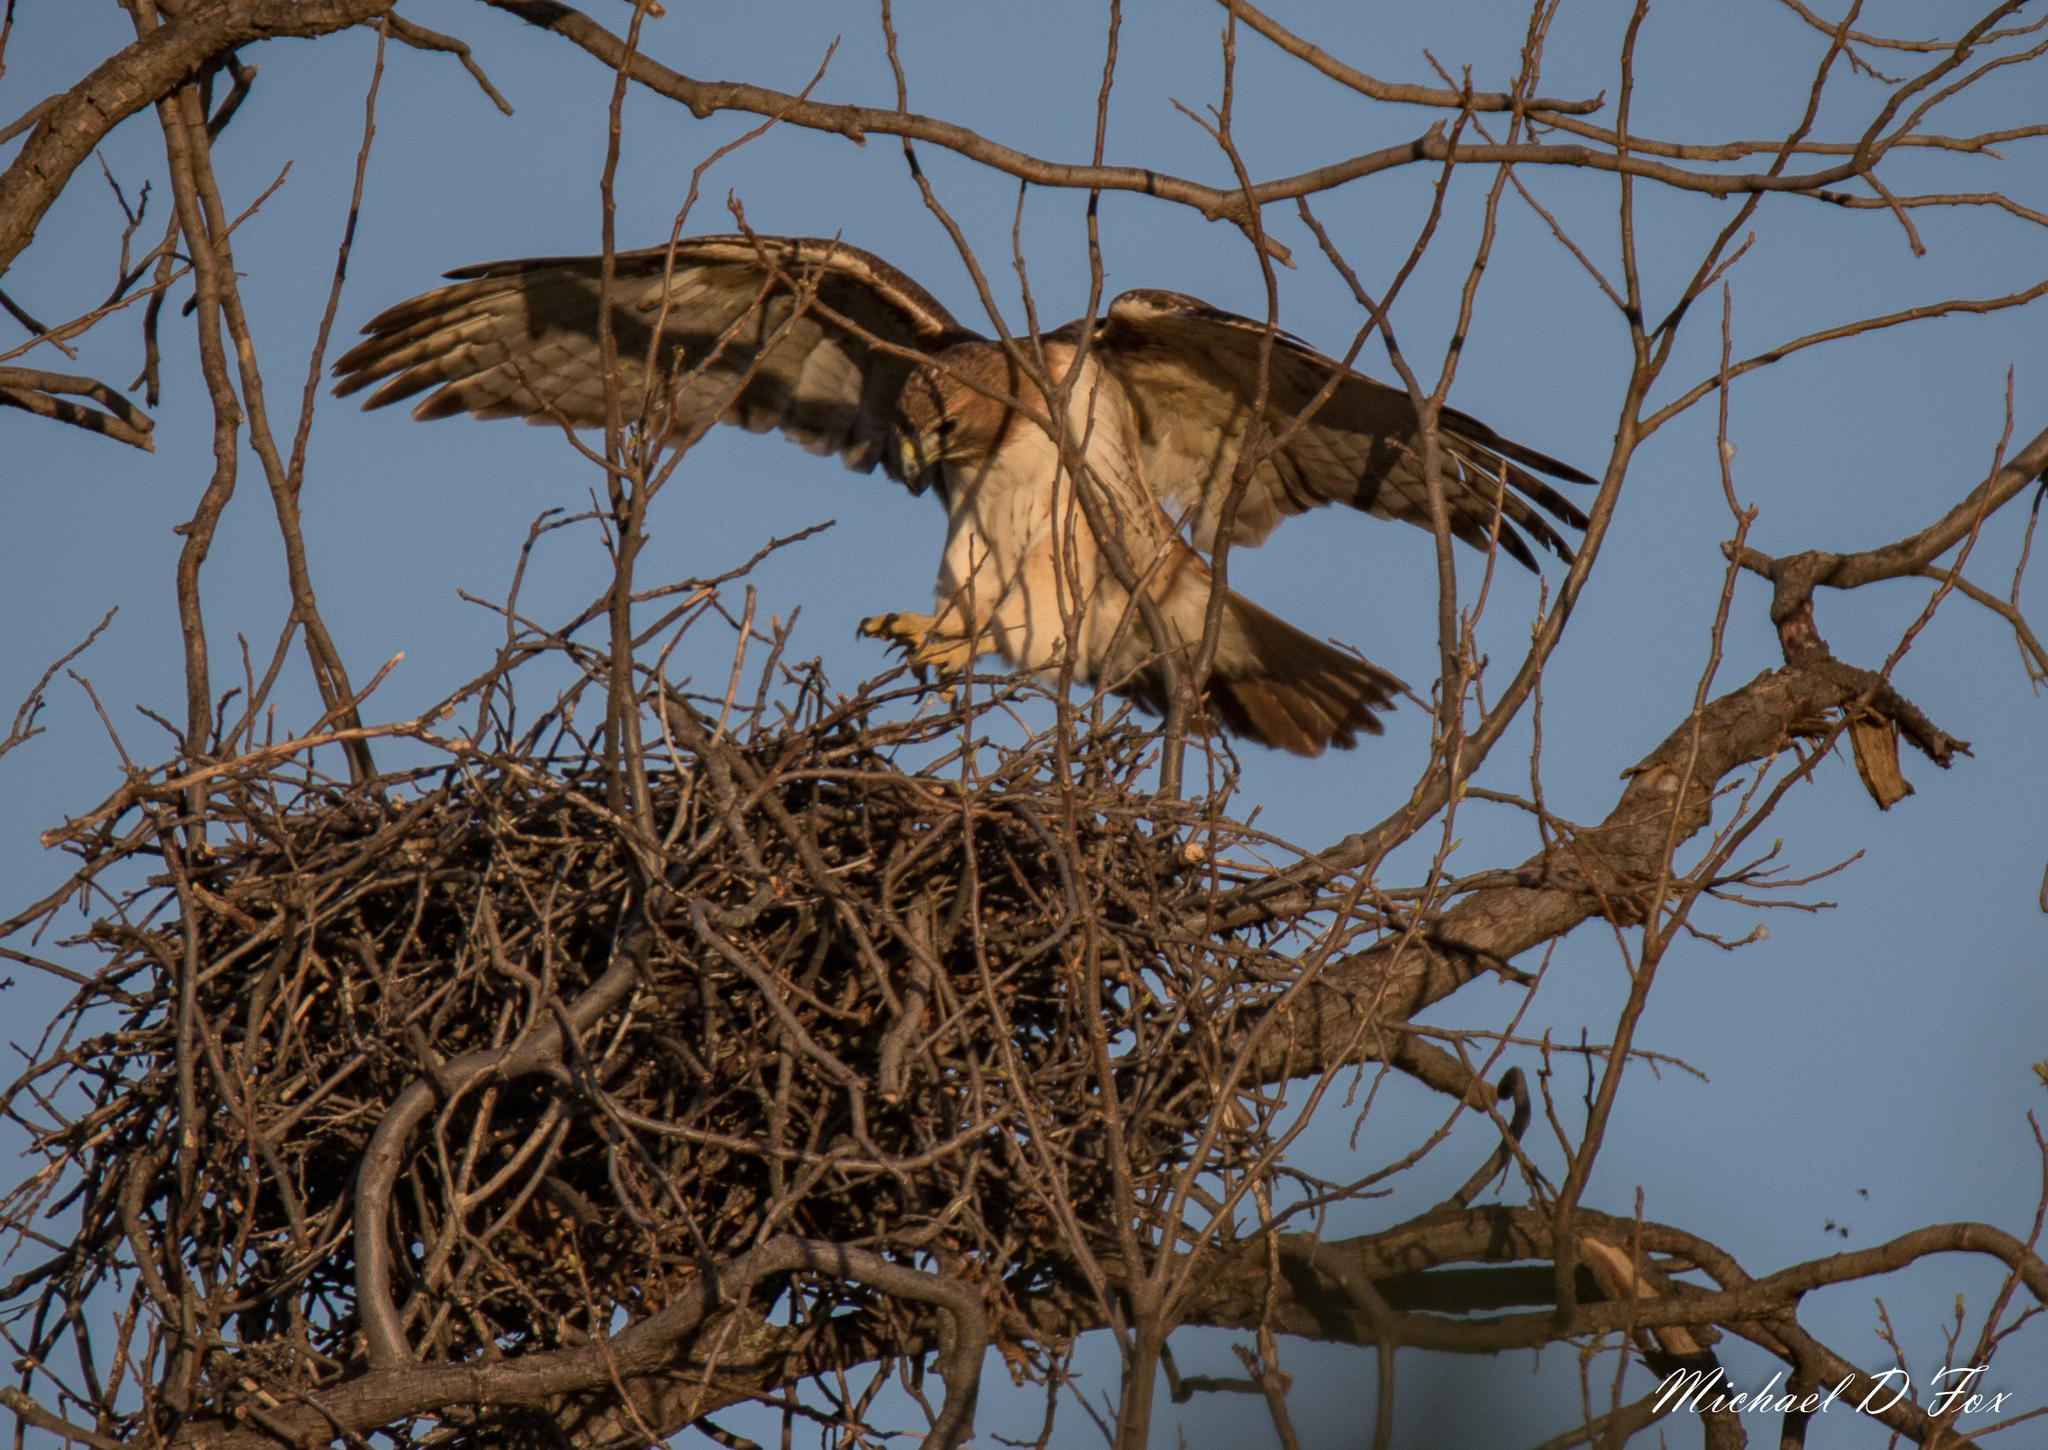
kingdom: Animalia
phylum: Chordata
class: Aves
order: Accipitriformes
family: Accipitridae
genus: Buteo
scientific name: Buteo jamaicensis
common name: Red-tailed hawk
